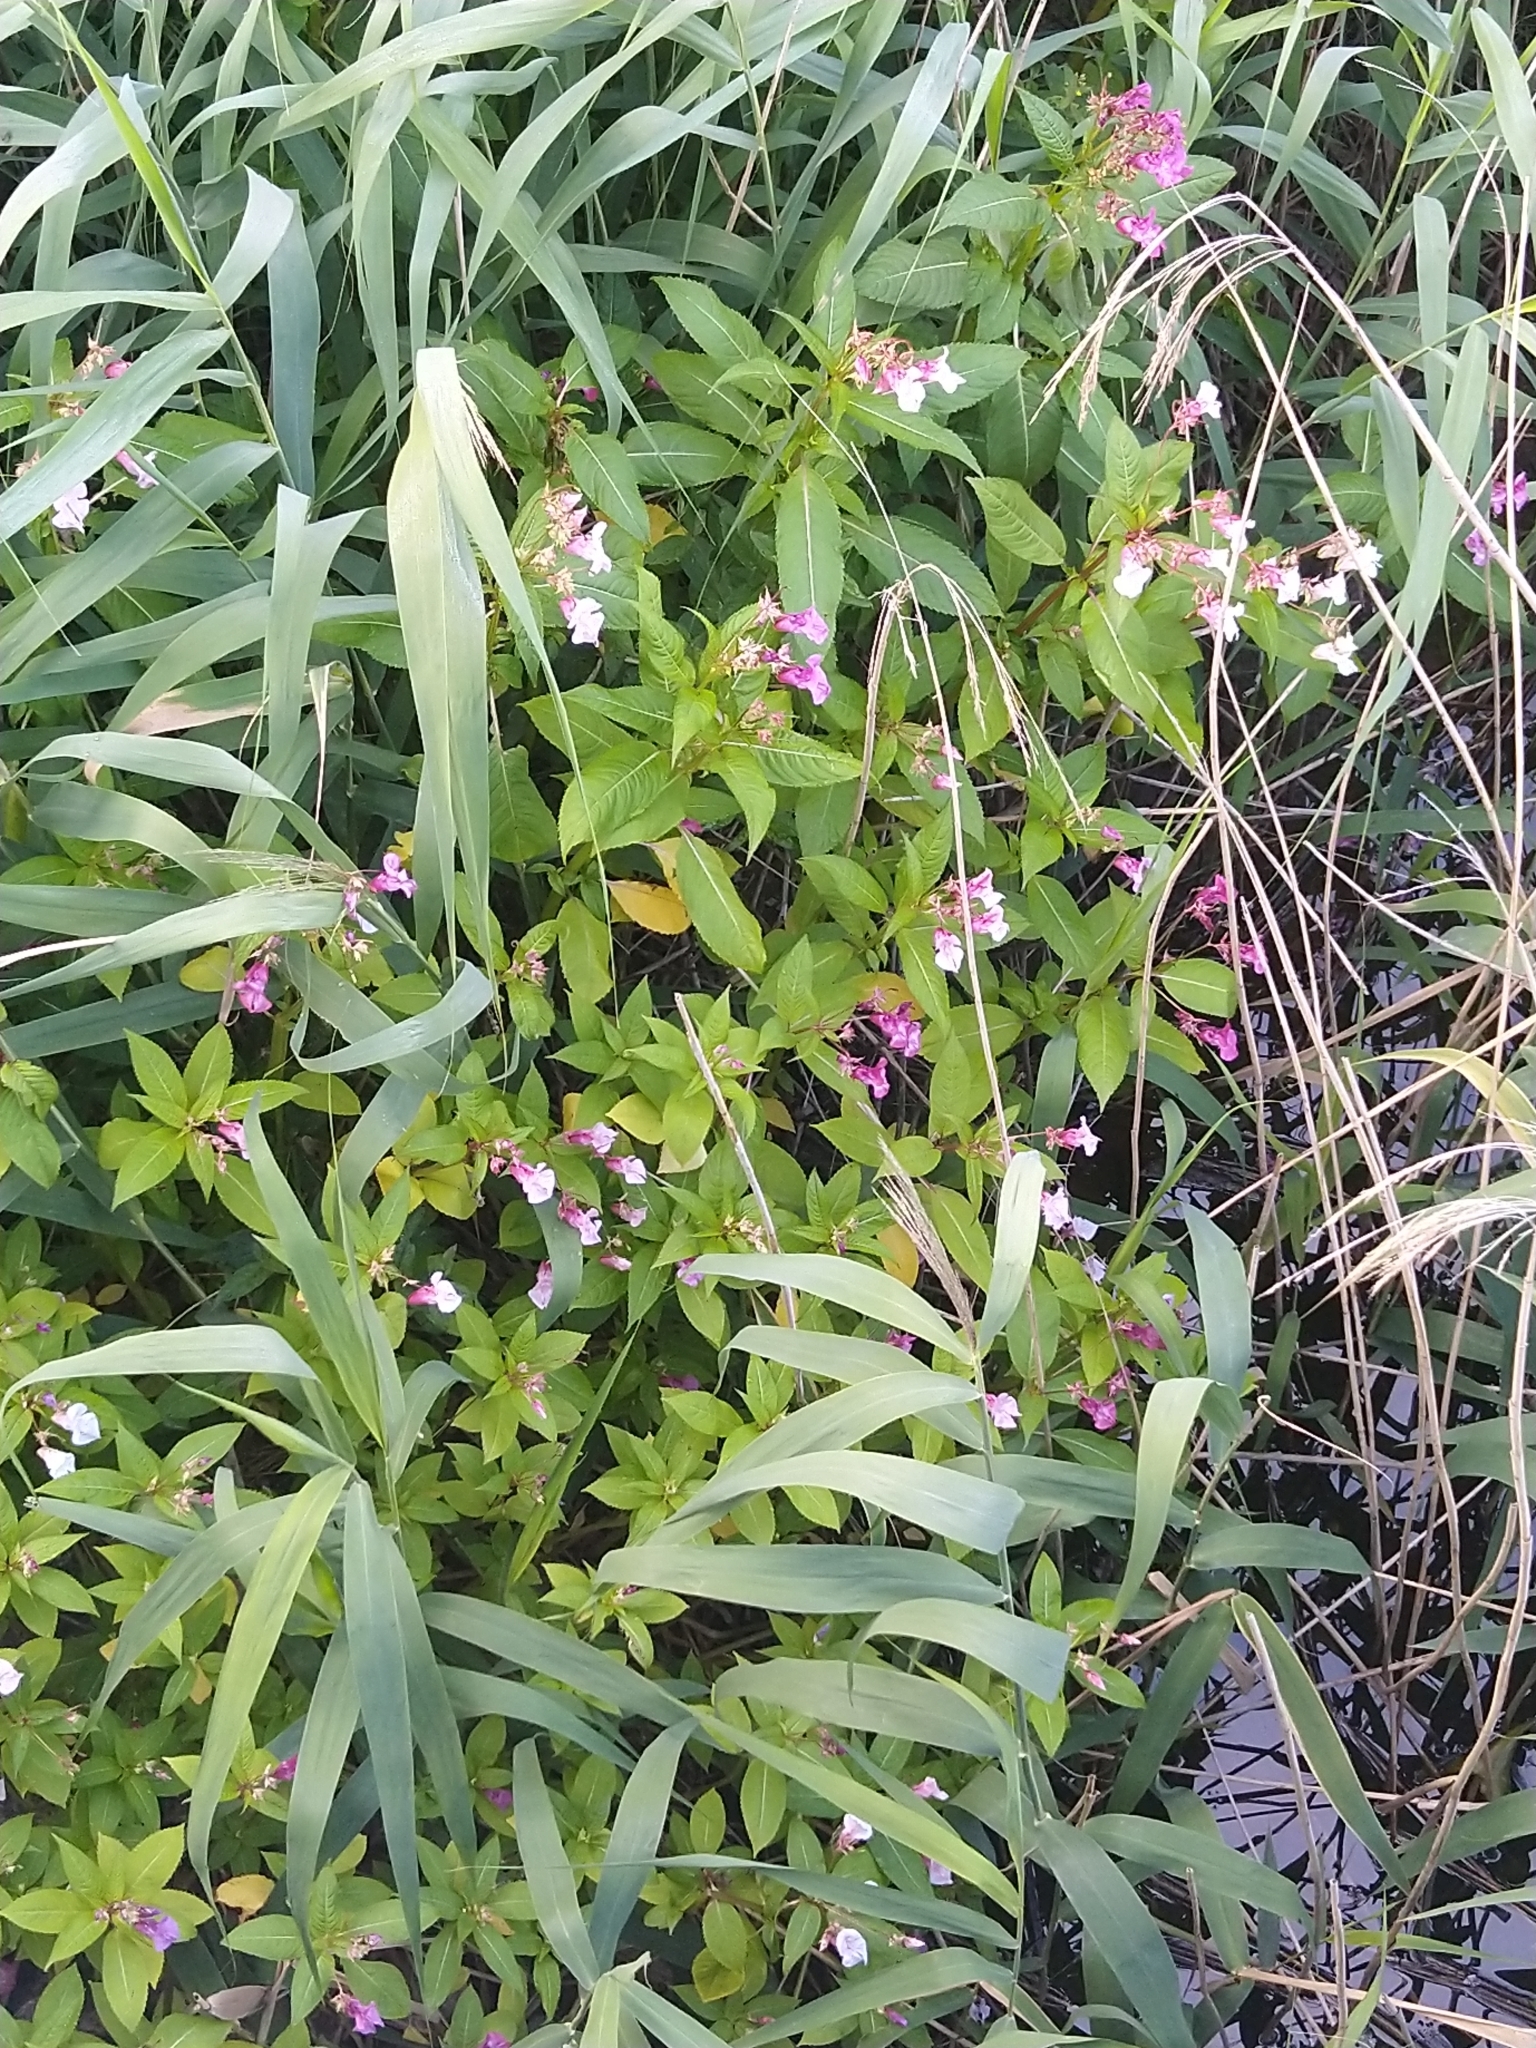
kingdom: Plantae
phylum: Tracheophyta
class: Magnoliopsida
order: Ericales
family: Balsaminaceae
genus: Impatiens
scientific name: Impatiens glandulifera
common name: Himalayan balsam
